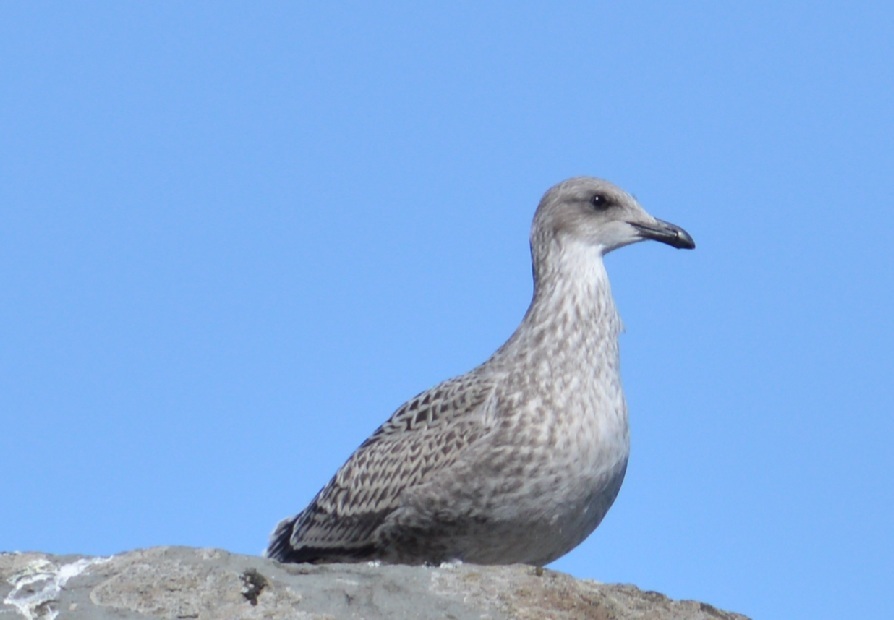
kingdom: Animalia
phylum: Chordata
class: Aves
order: Charadriiformes
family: Laridae
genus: Larus
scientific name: Larus dominicanus
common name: Kelp gull
